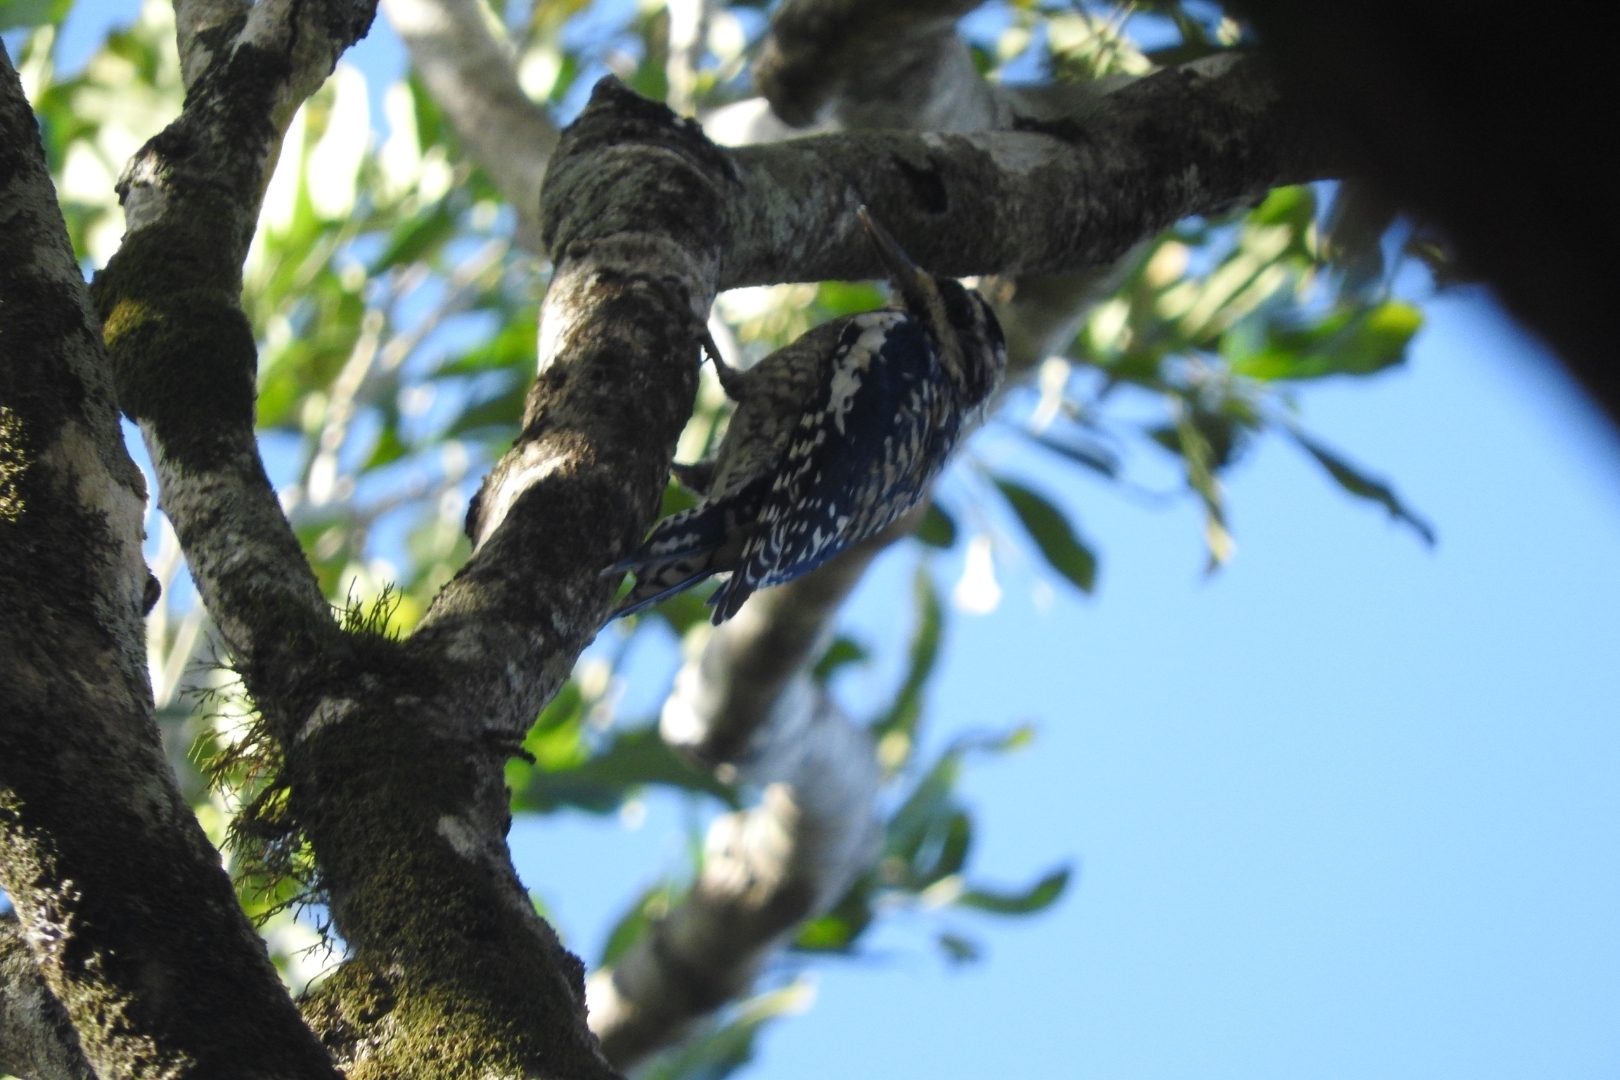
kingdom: Animalia
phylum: Chordata
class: Aves
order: Piciformes
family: Picidae
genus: Sphyrapicus
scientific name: Sphyrapicus varius
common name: Yellow-bellied sapsucker
